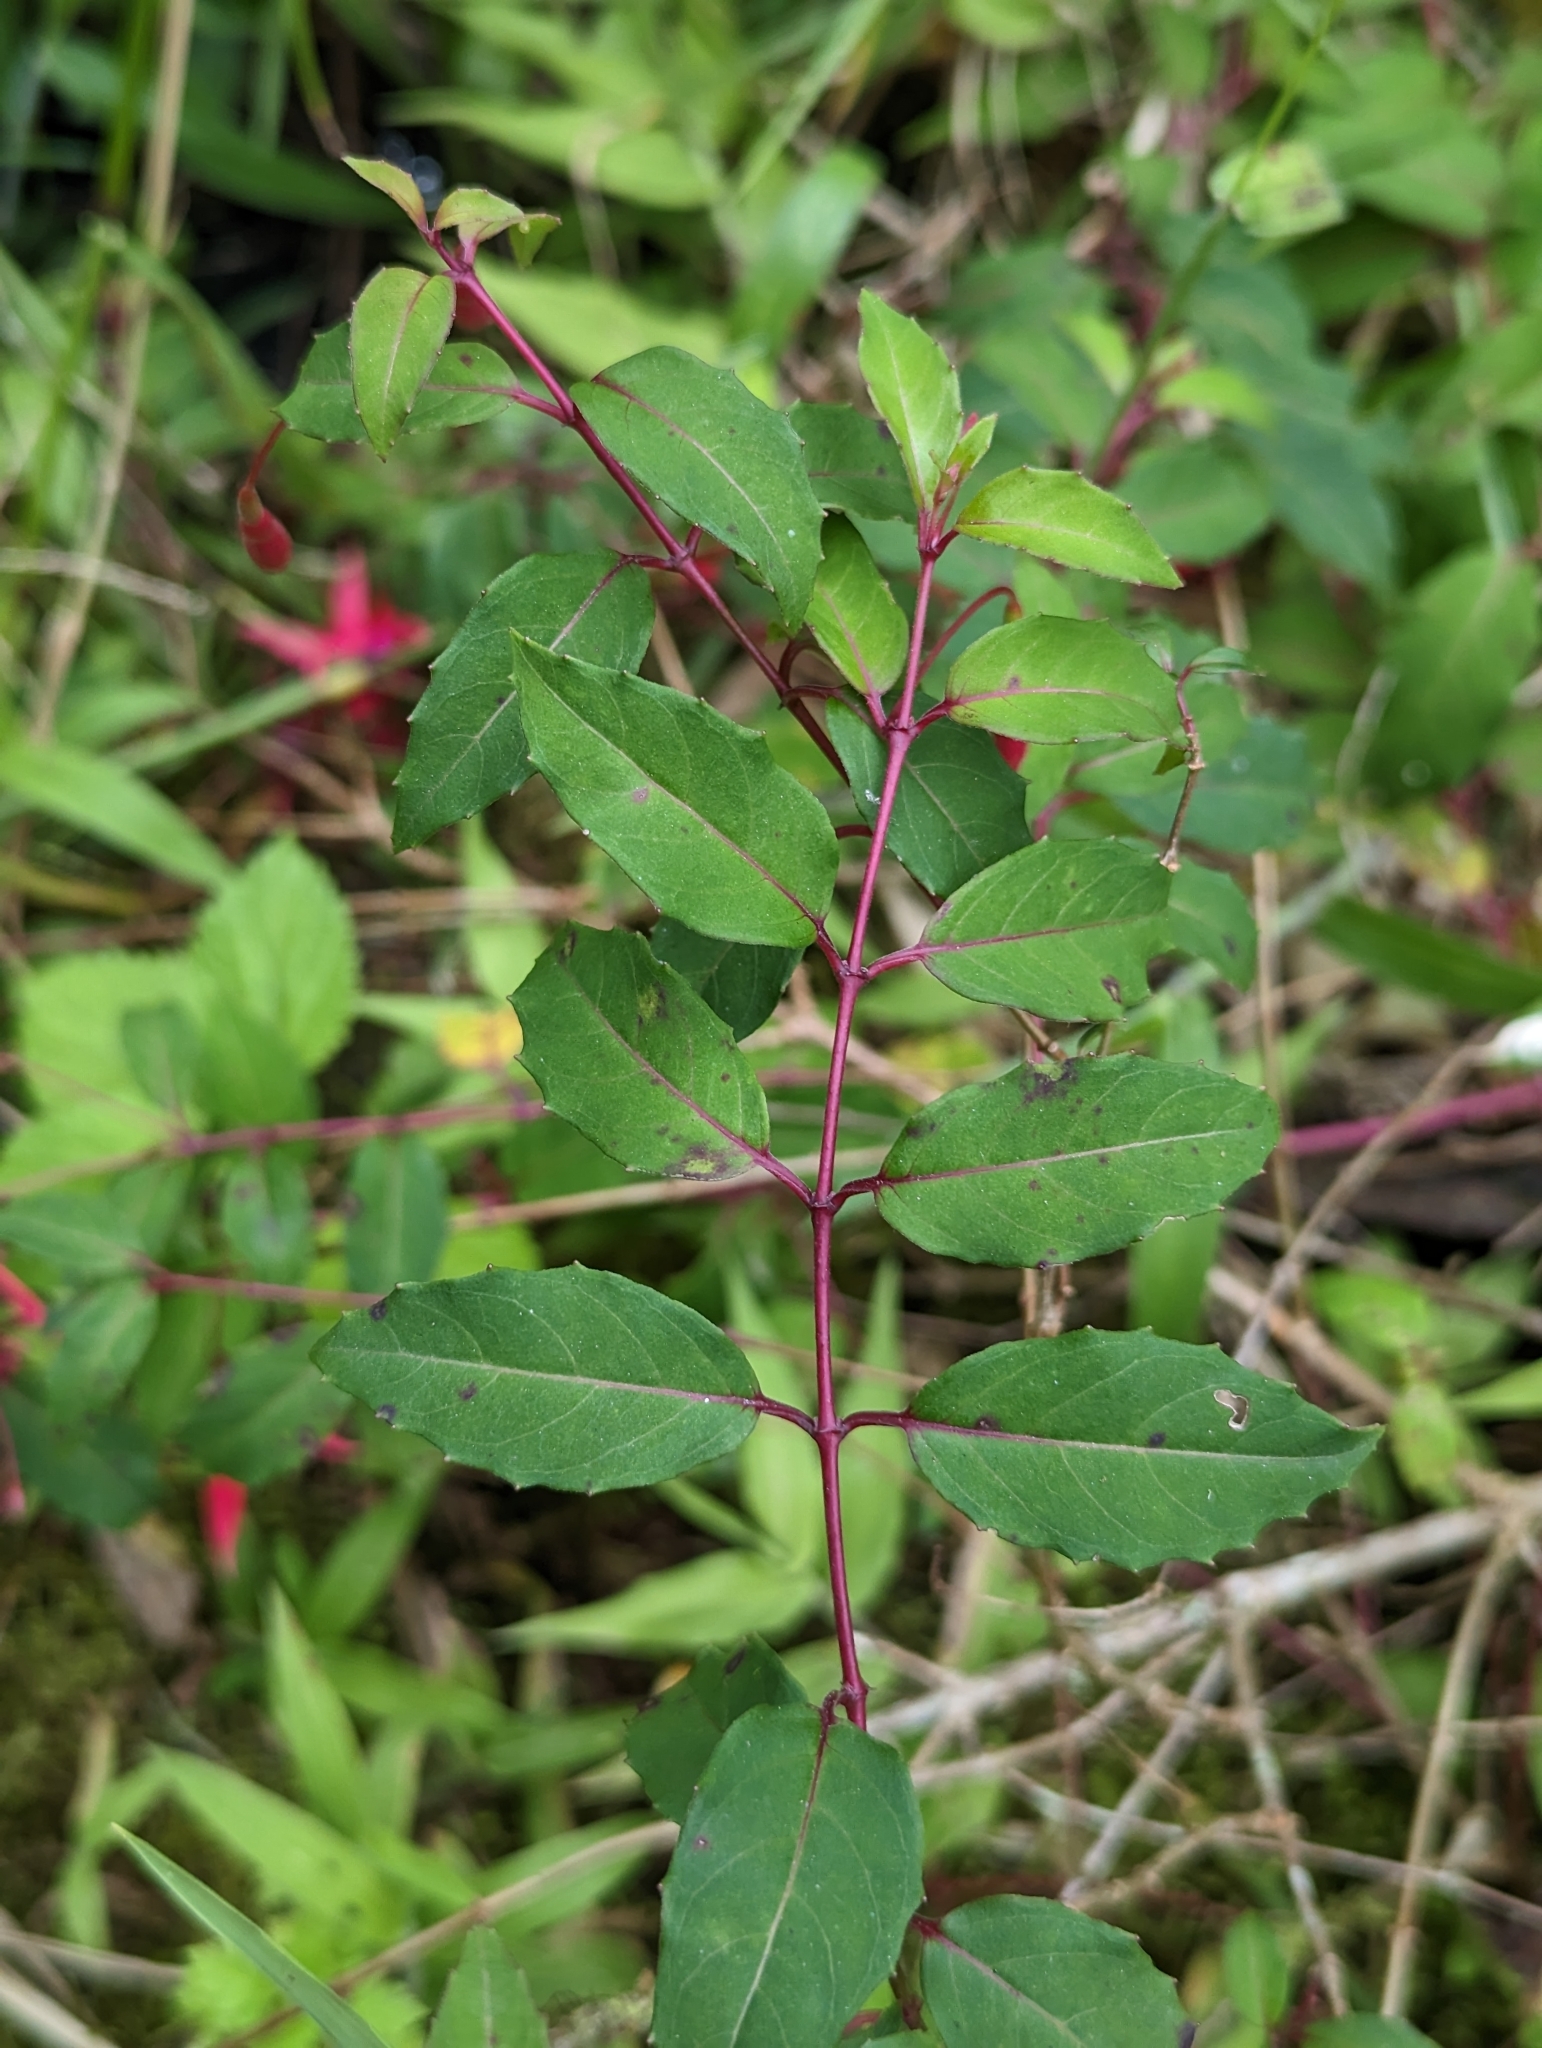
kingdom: Plantae
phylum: Tracheophyta
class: Magnoliopsida
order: Myrtales
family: Onagraceae
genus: Fuchsia
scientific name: Fuchsia magellanica
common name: Hardy fuchsia
